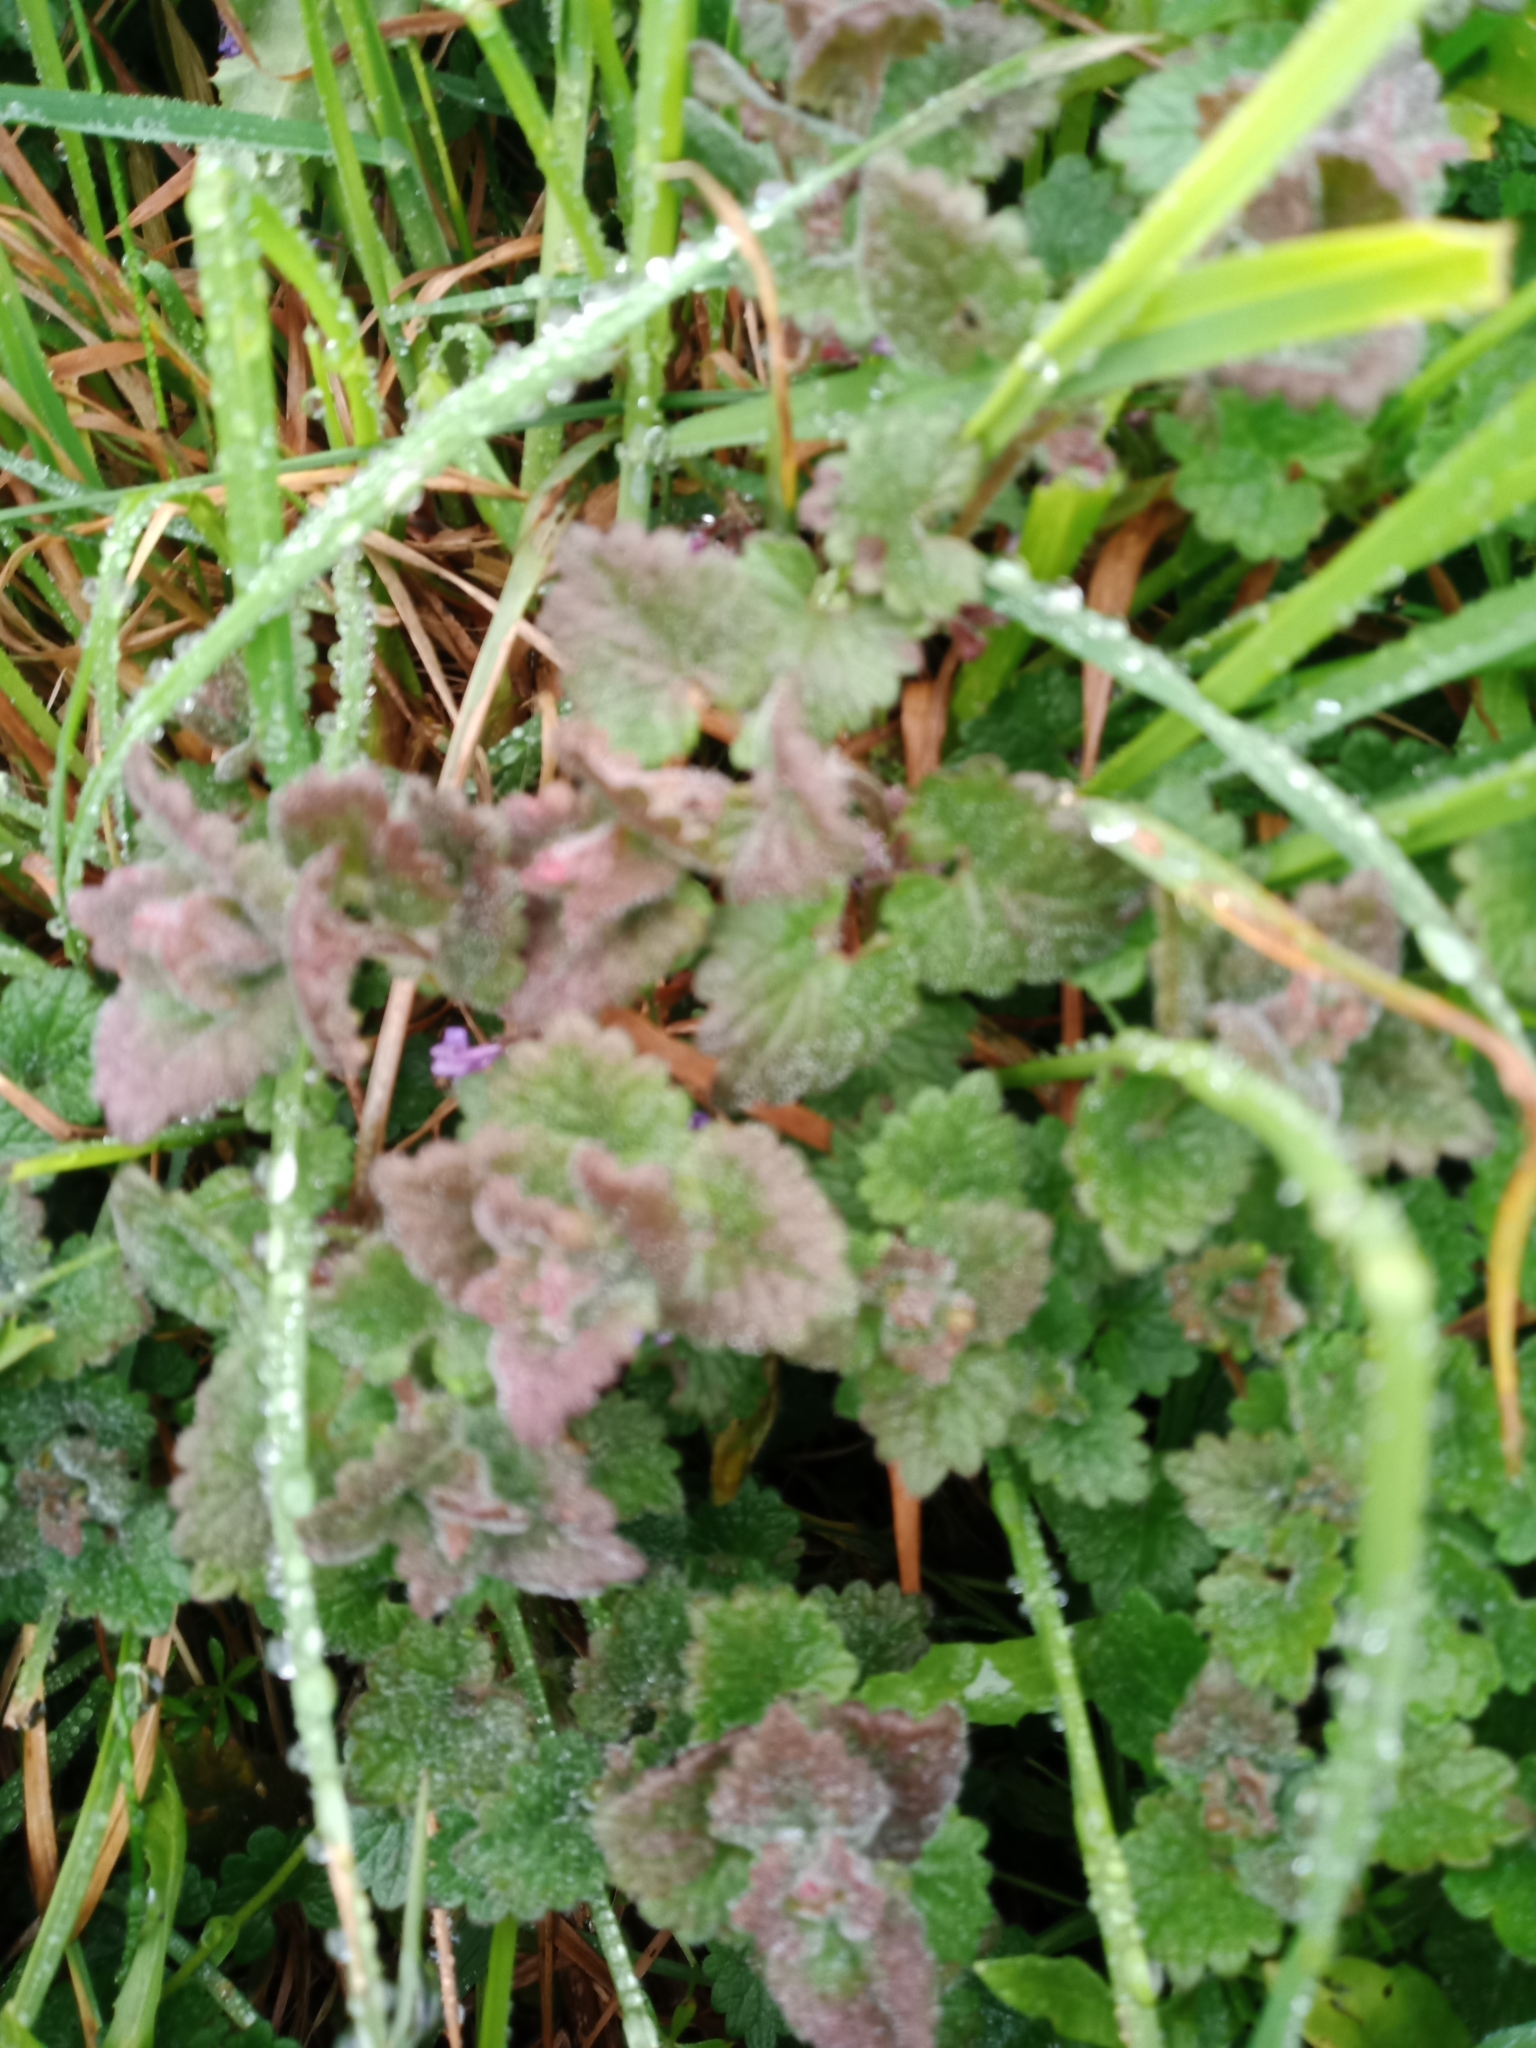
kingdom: Plantae
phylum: Tracheophyta
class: Magnoliopsida
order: Lamiales
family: Lamiaceae
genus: Glechoma
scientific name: Glechoma hederacea
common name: Ground ivy
